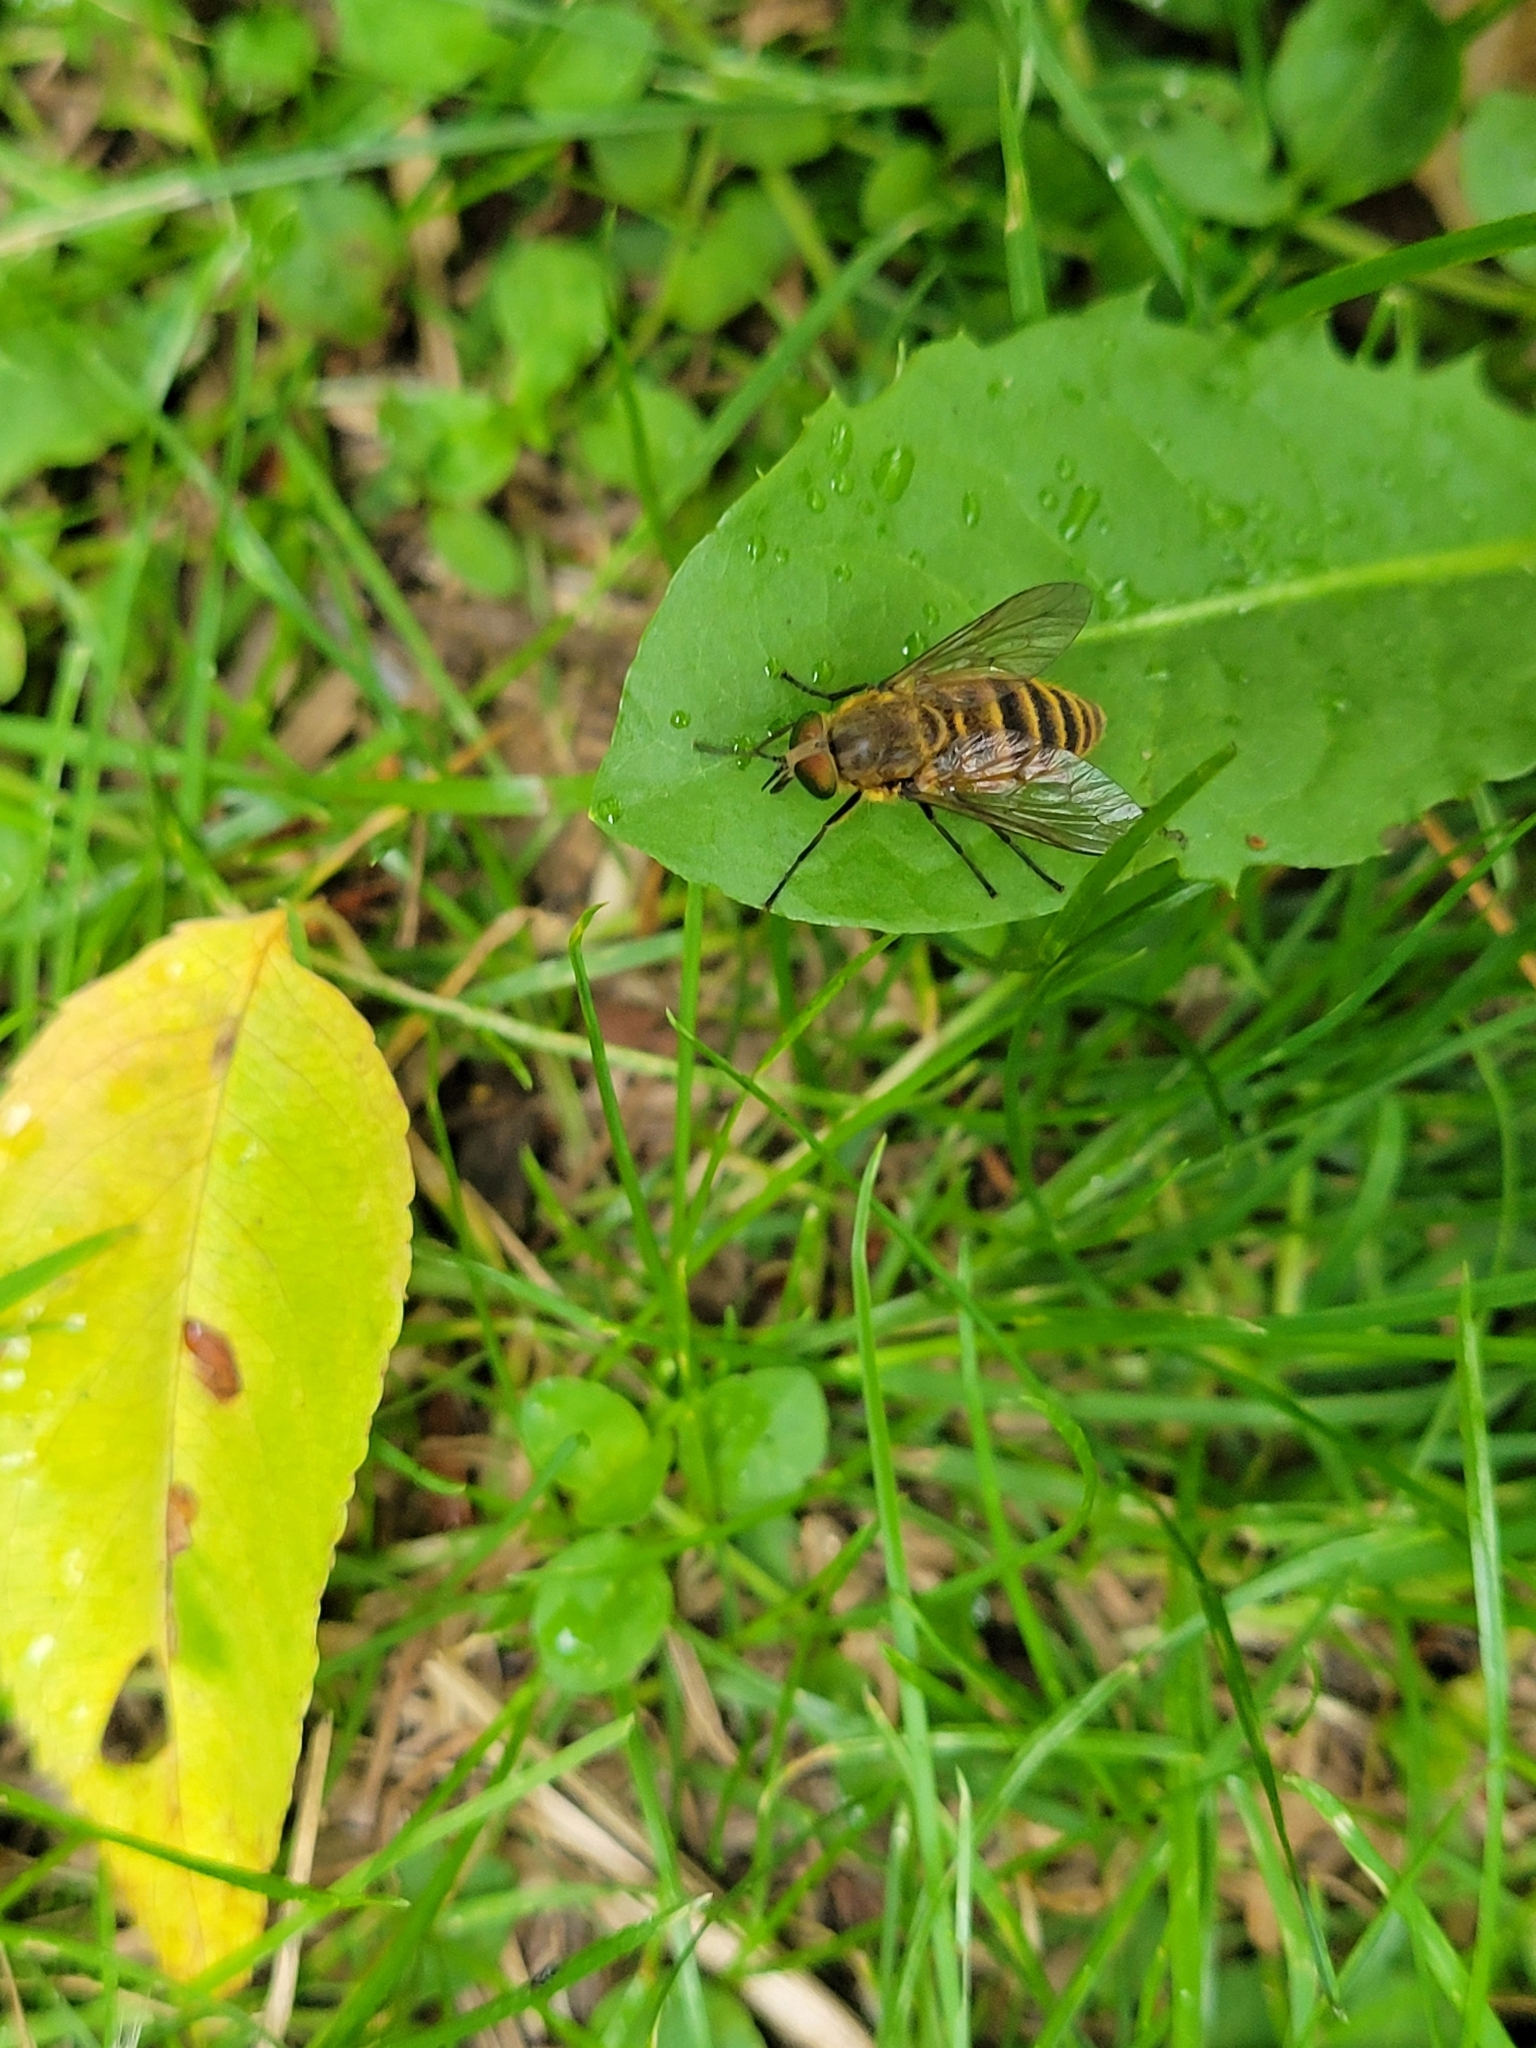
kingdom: Animalia
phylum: Arthropoda
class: Insecta
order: Diptera
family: Tabanidae
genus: Stonemyia
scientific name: Stonemyia tranquilla
